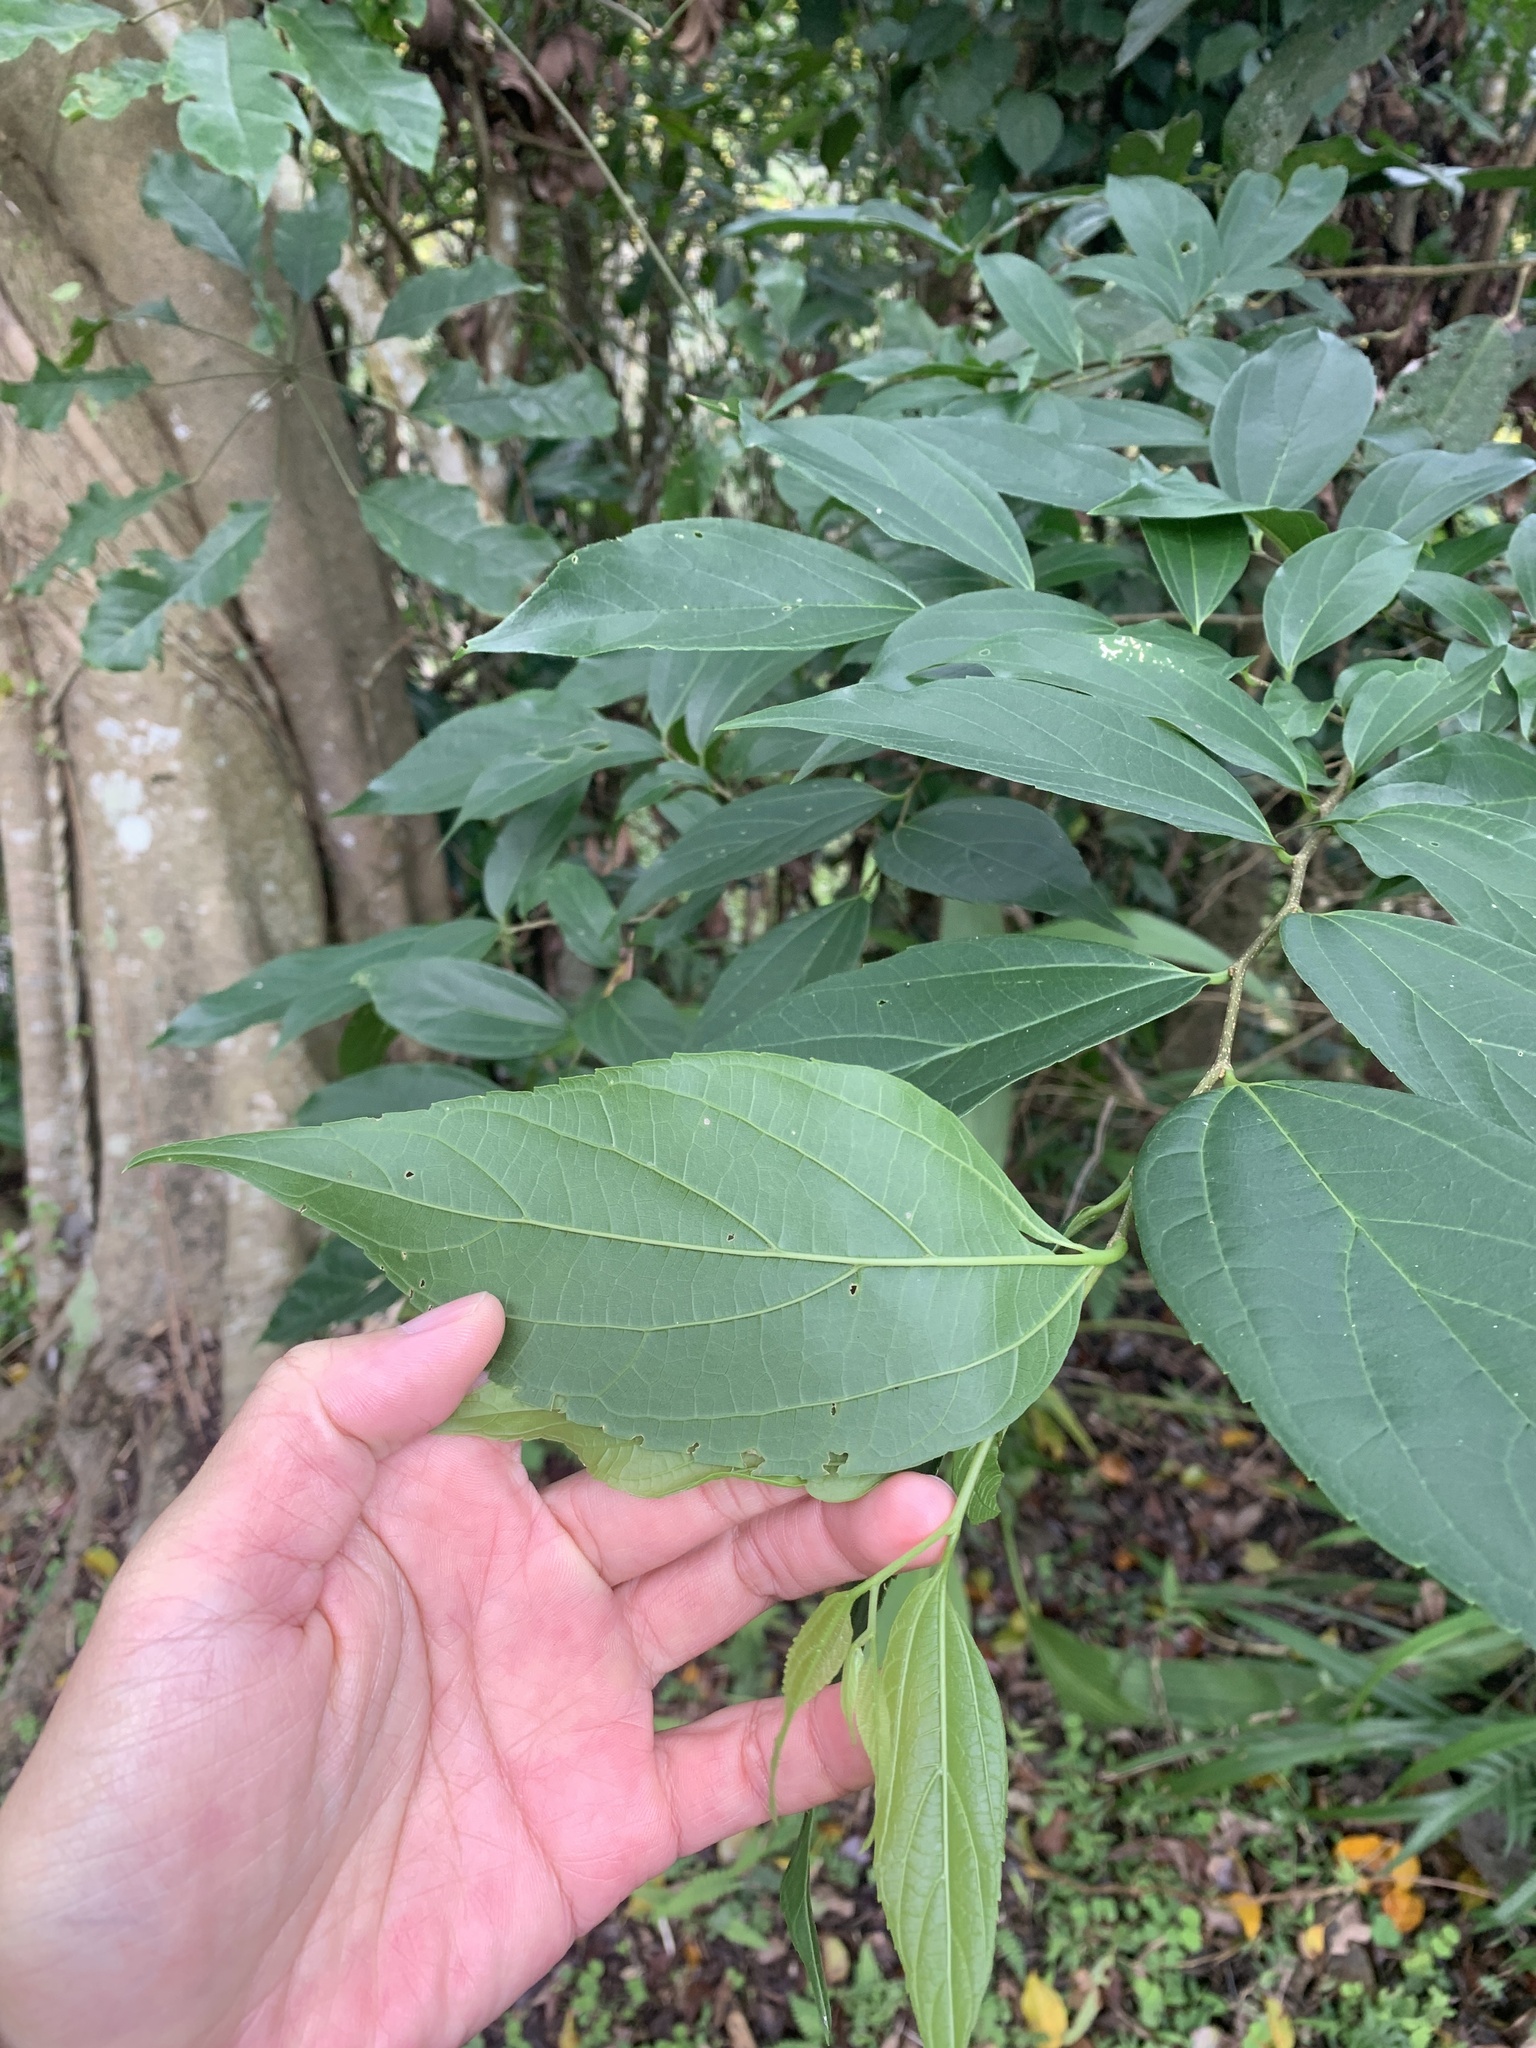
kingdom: Plantae
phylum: Tracheophyta
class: Magnoliopsida
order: Rosales
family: Cannabaceae
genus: Celtis
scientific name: Celtis tetrandra
